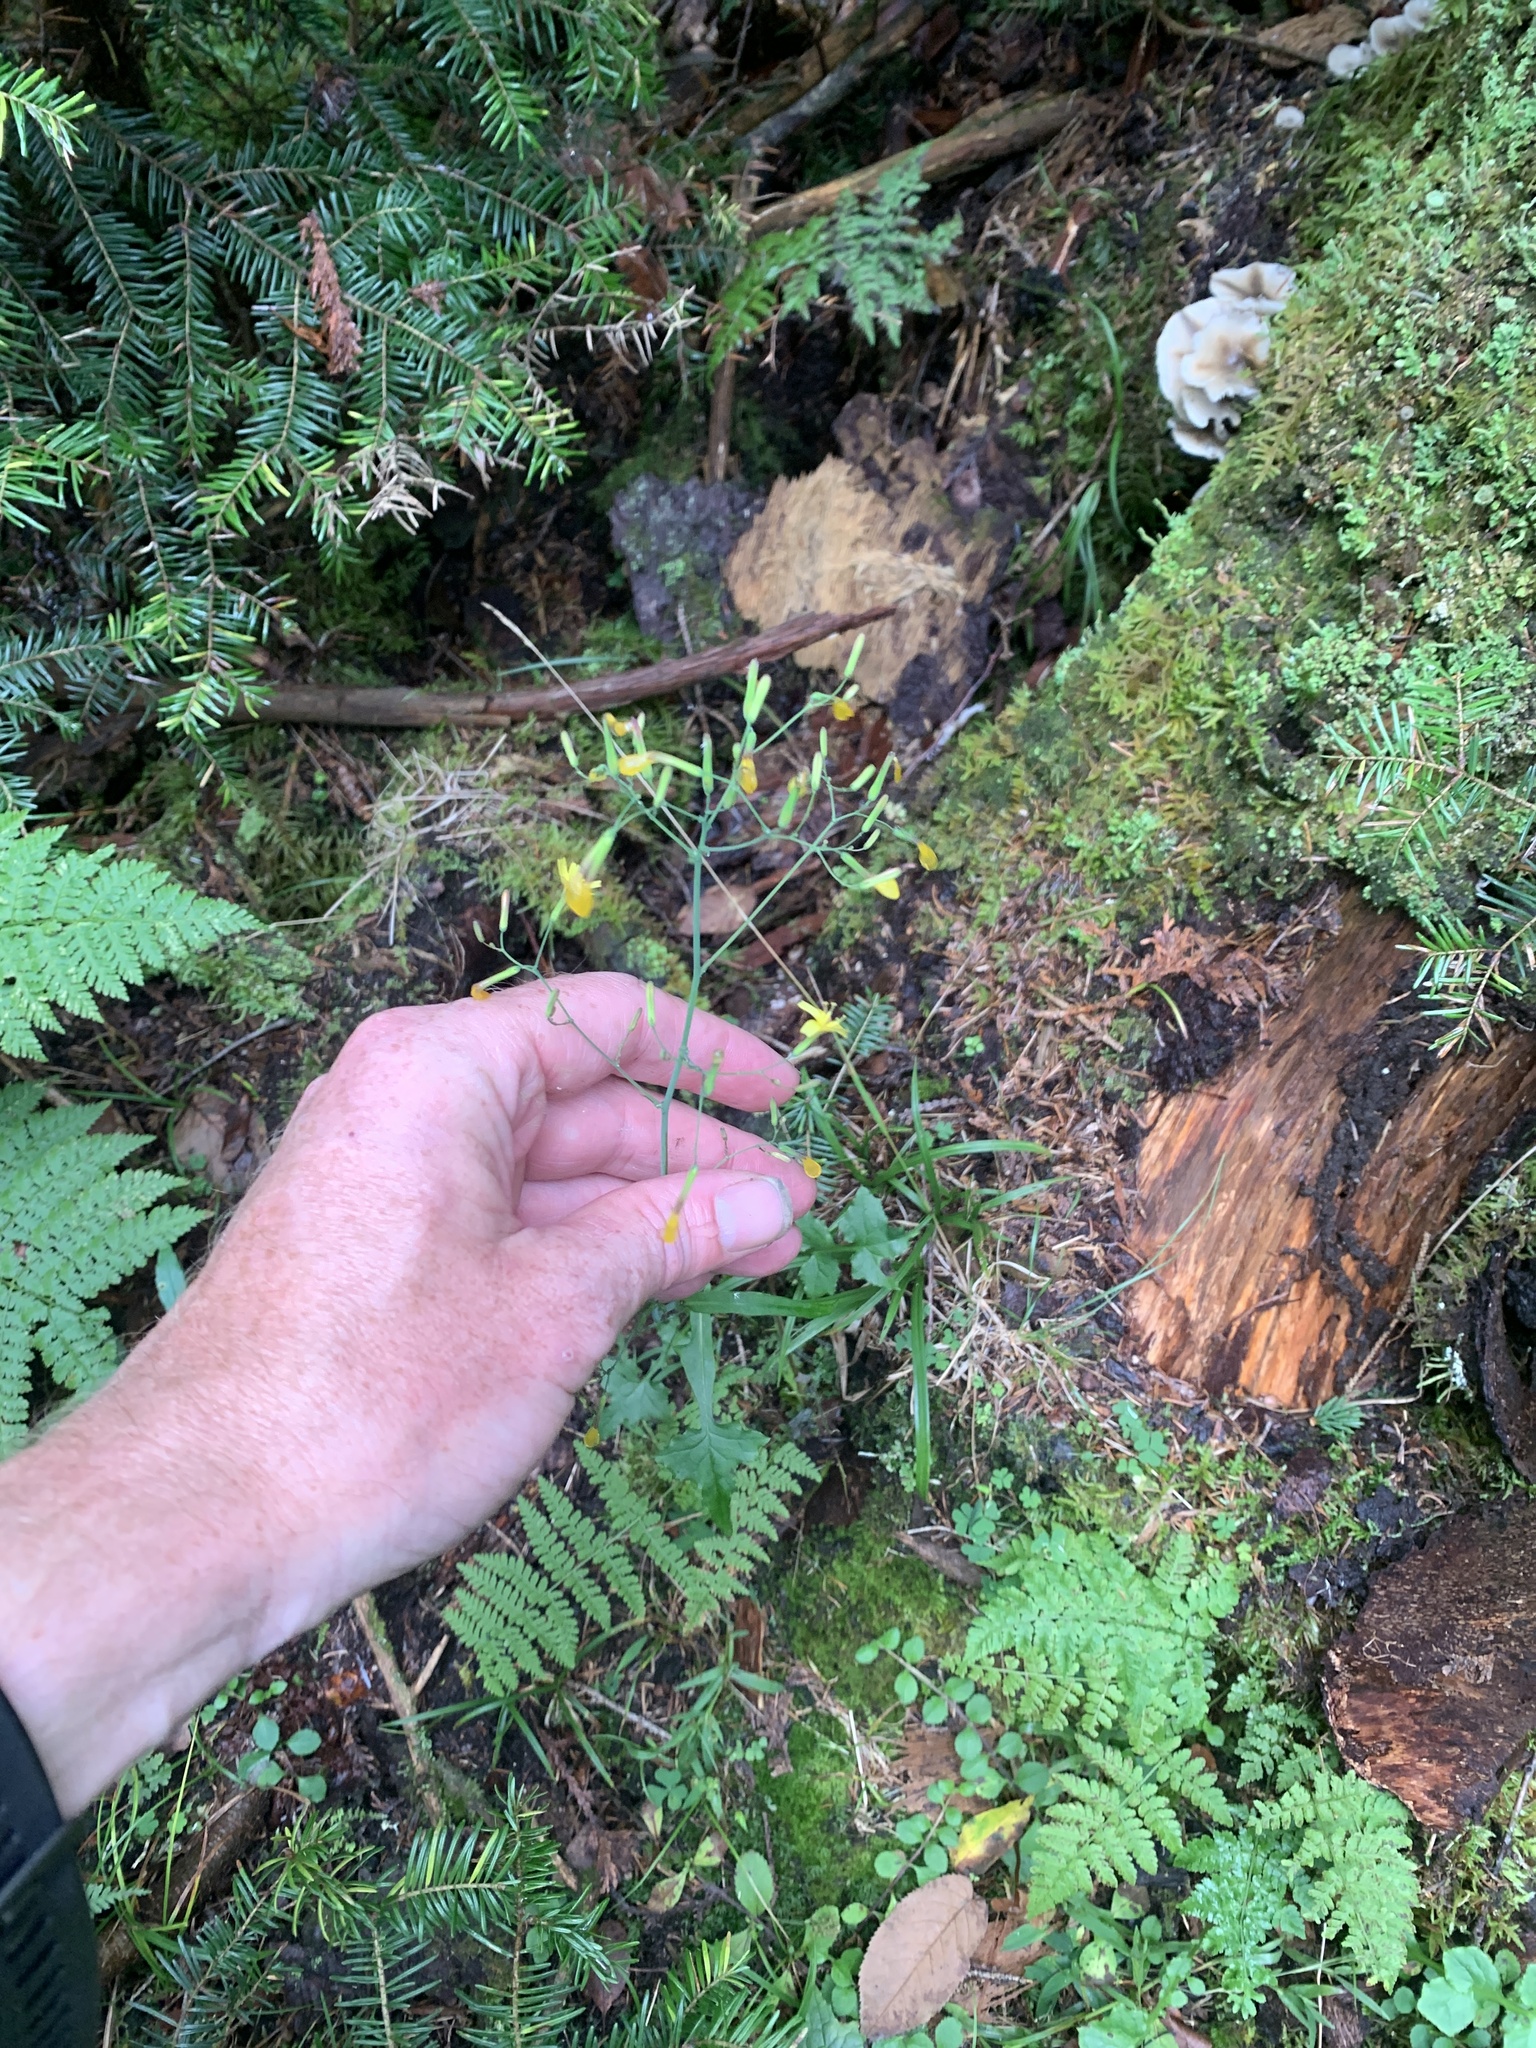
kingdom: Plantae
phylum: Tracheophyta
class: Magnoliopsida
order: Asterales
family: Asteraceae
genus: Mycelis
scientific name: Mycelis muralis
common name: Wall lettuce
